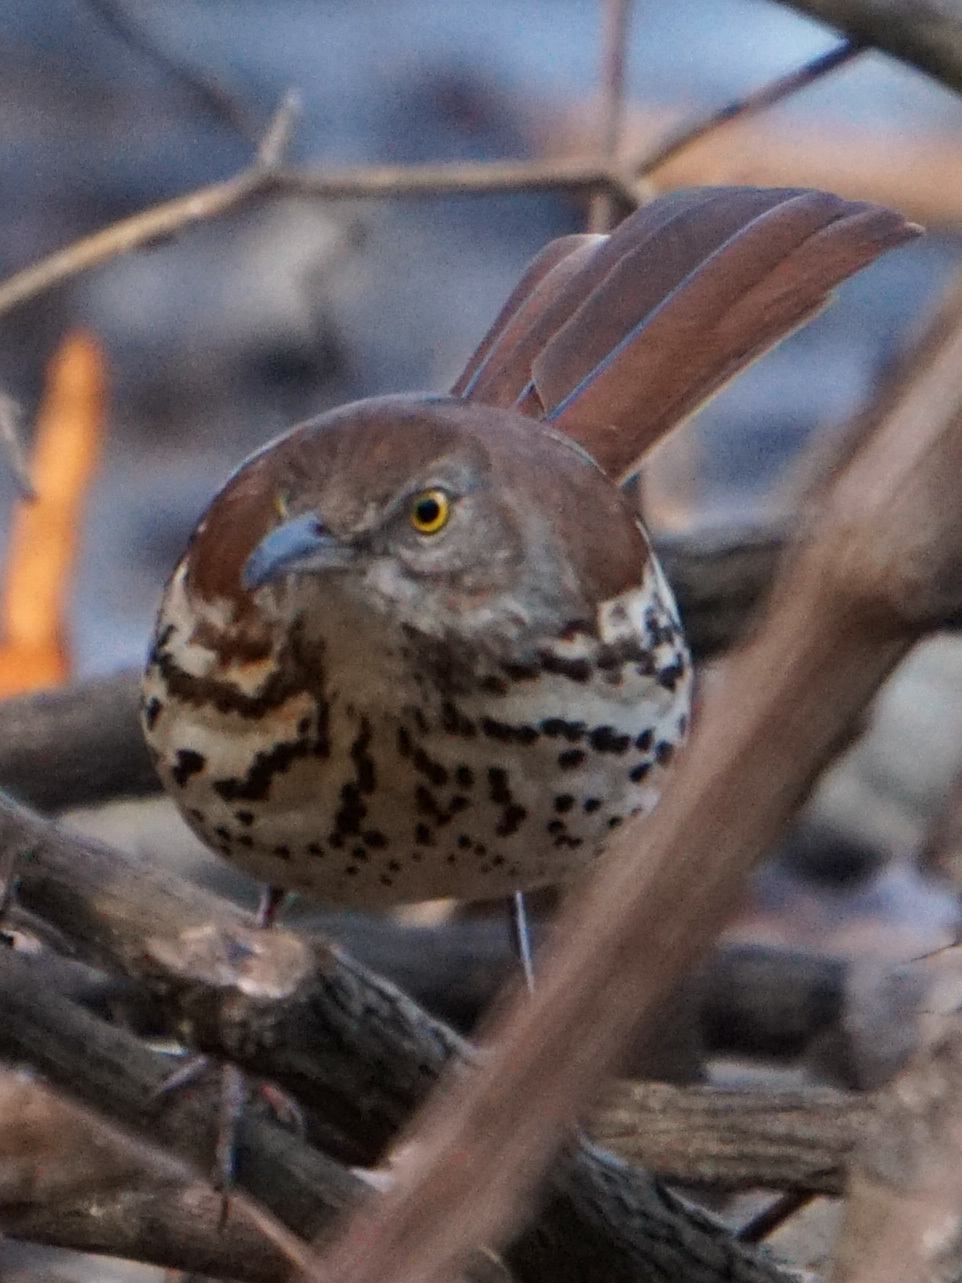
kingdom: Animalia
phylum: Chordata
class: Aves
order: Passeriformes
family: Mimidae
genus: Toxostoma
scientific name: Toxostoma rufum
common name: Brown thrasher
